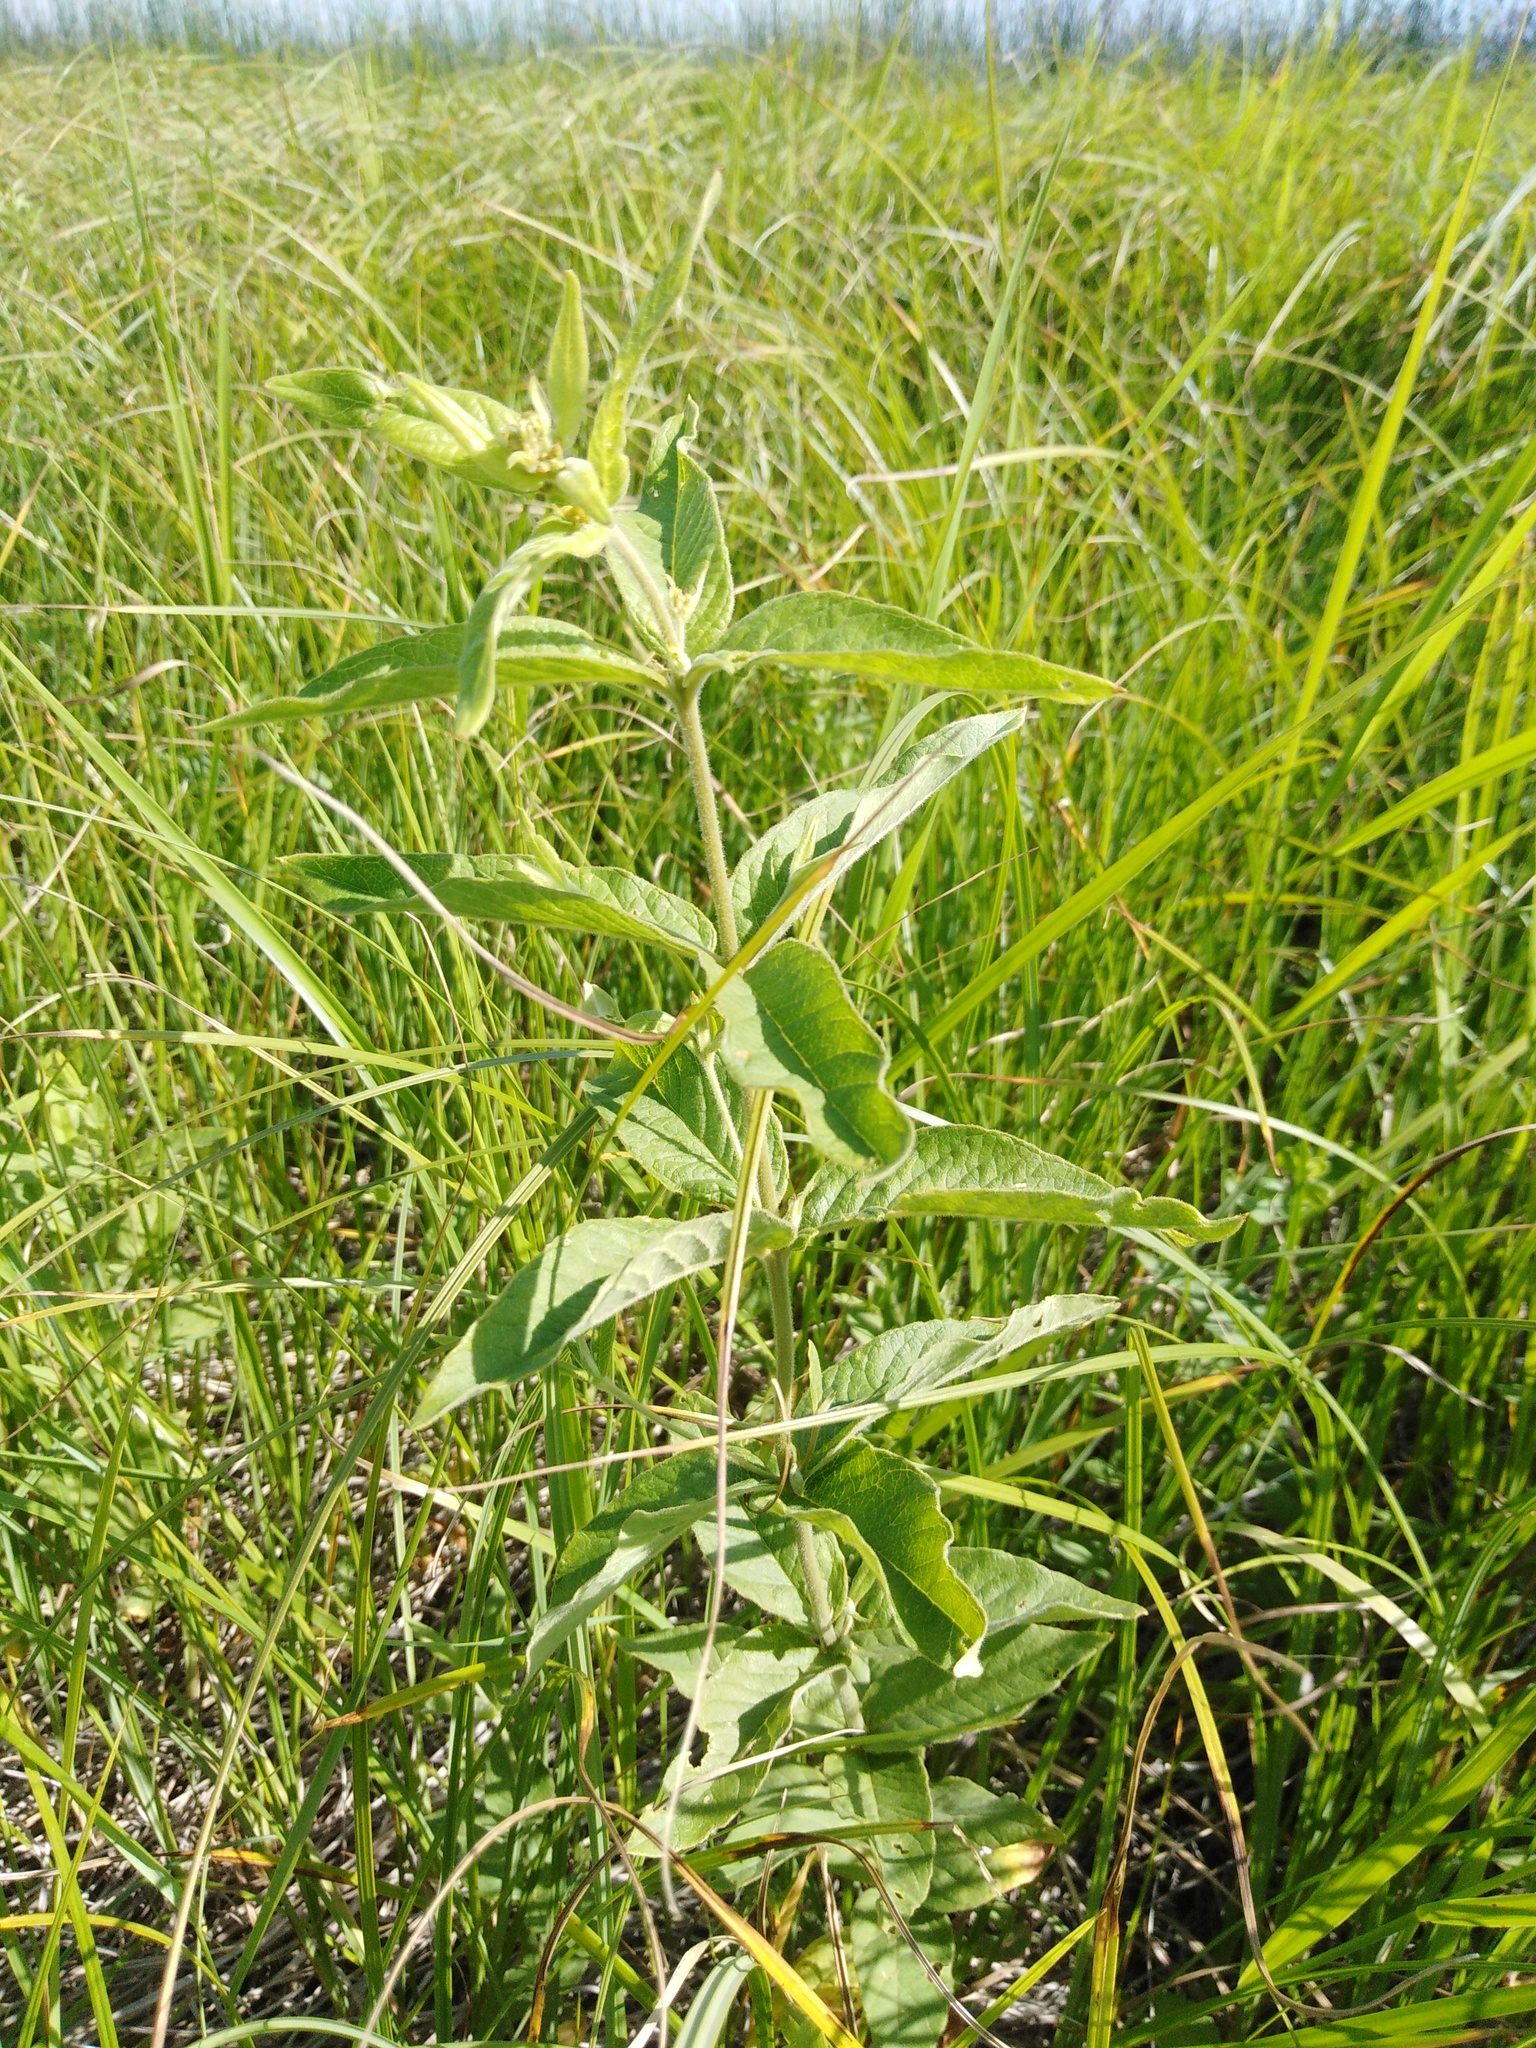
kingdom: Plantae
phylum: Tracheophyta
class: Magnoliopsida
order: Ericales
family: Primulaceae
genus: Lysimachia
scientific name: Lysimachia vulgaris
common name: Yellow loosestrife
